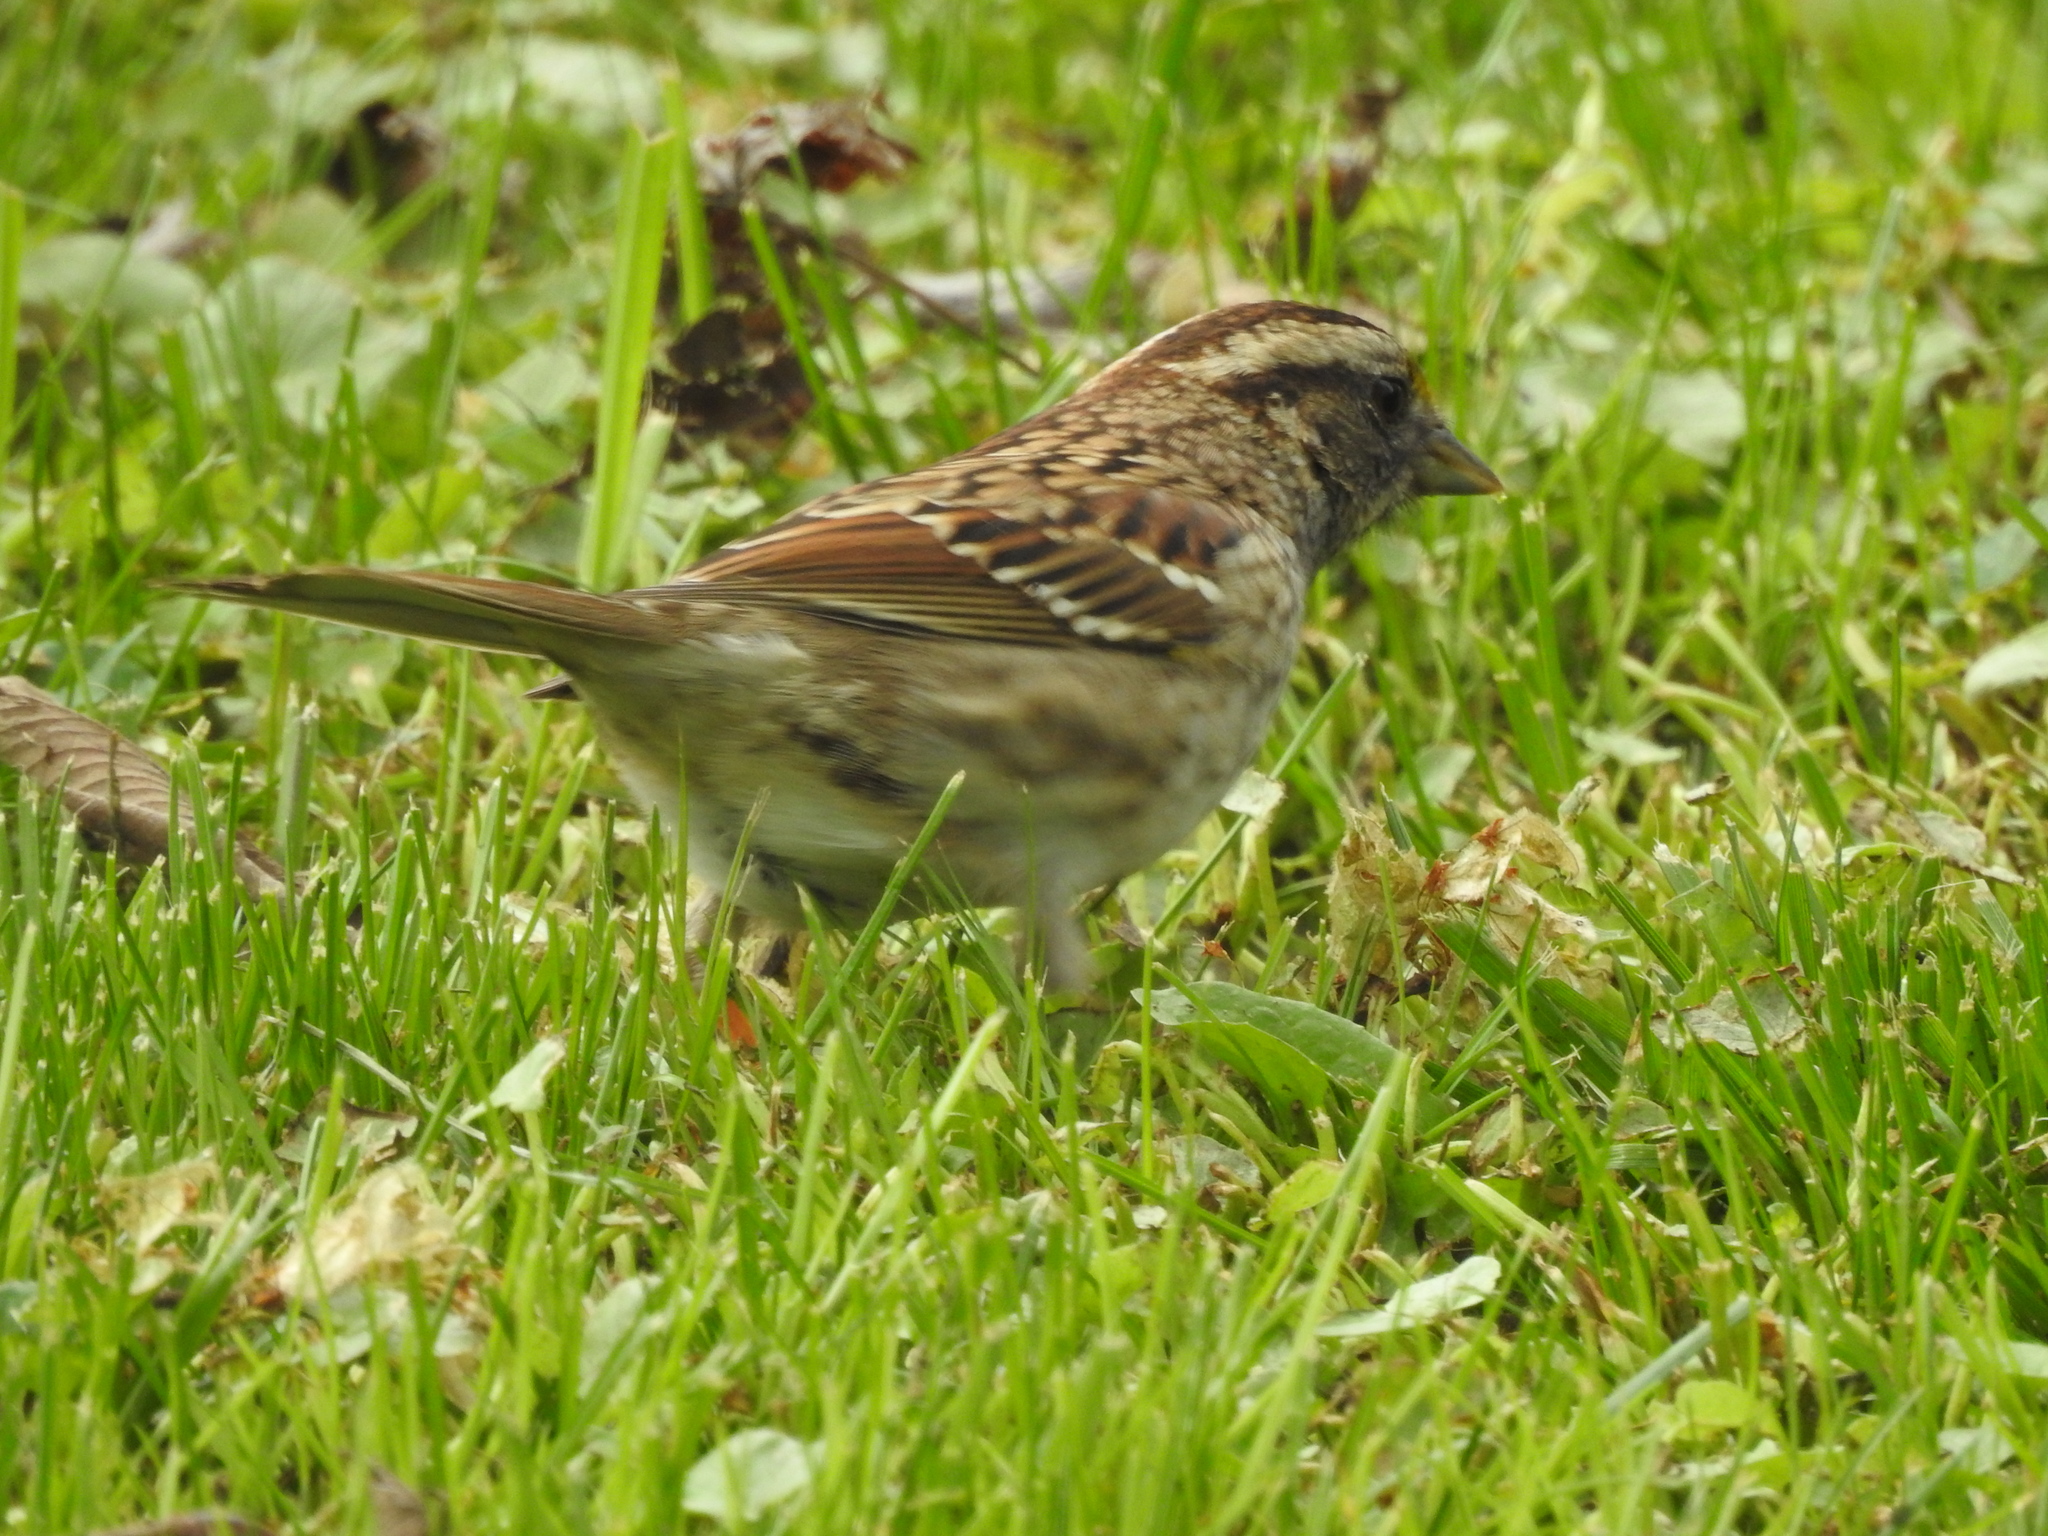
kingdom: Animalia
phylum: Chordata
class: Aves
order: Passeriformes
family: Passerellidae
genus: Zonotrichia
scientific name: Zonotrichia albicollis
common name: White-throated sparrow
